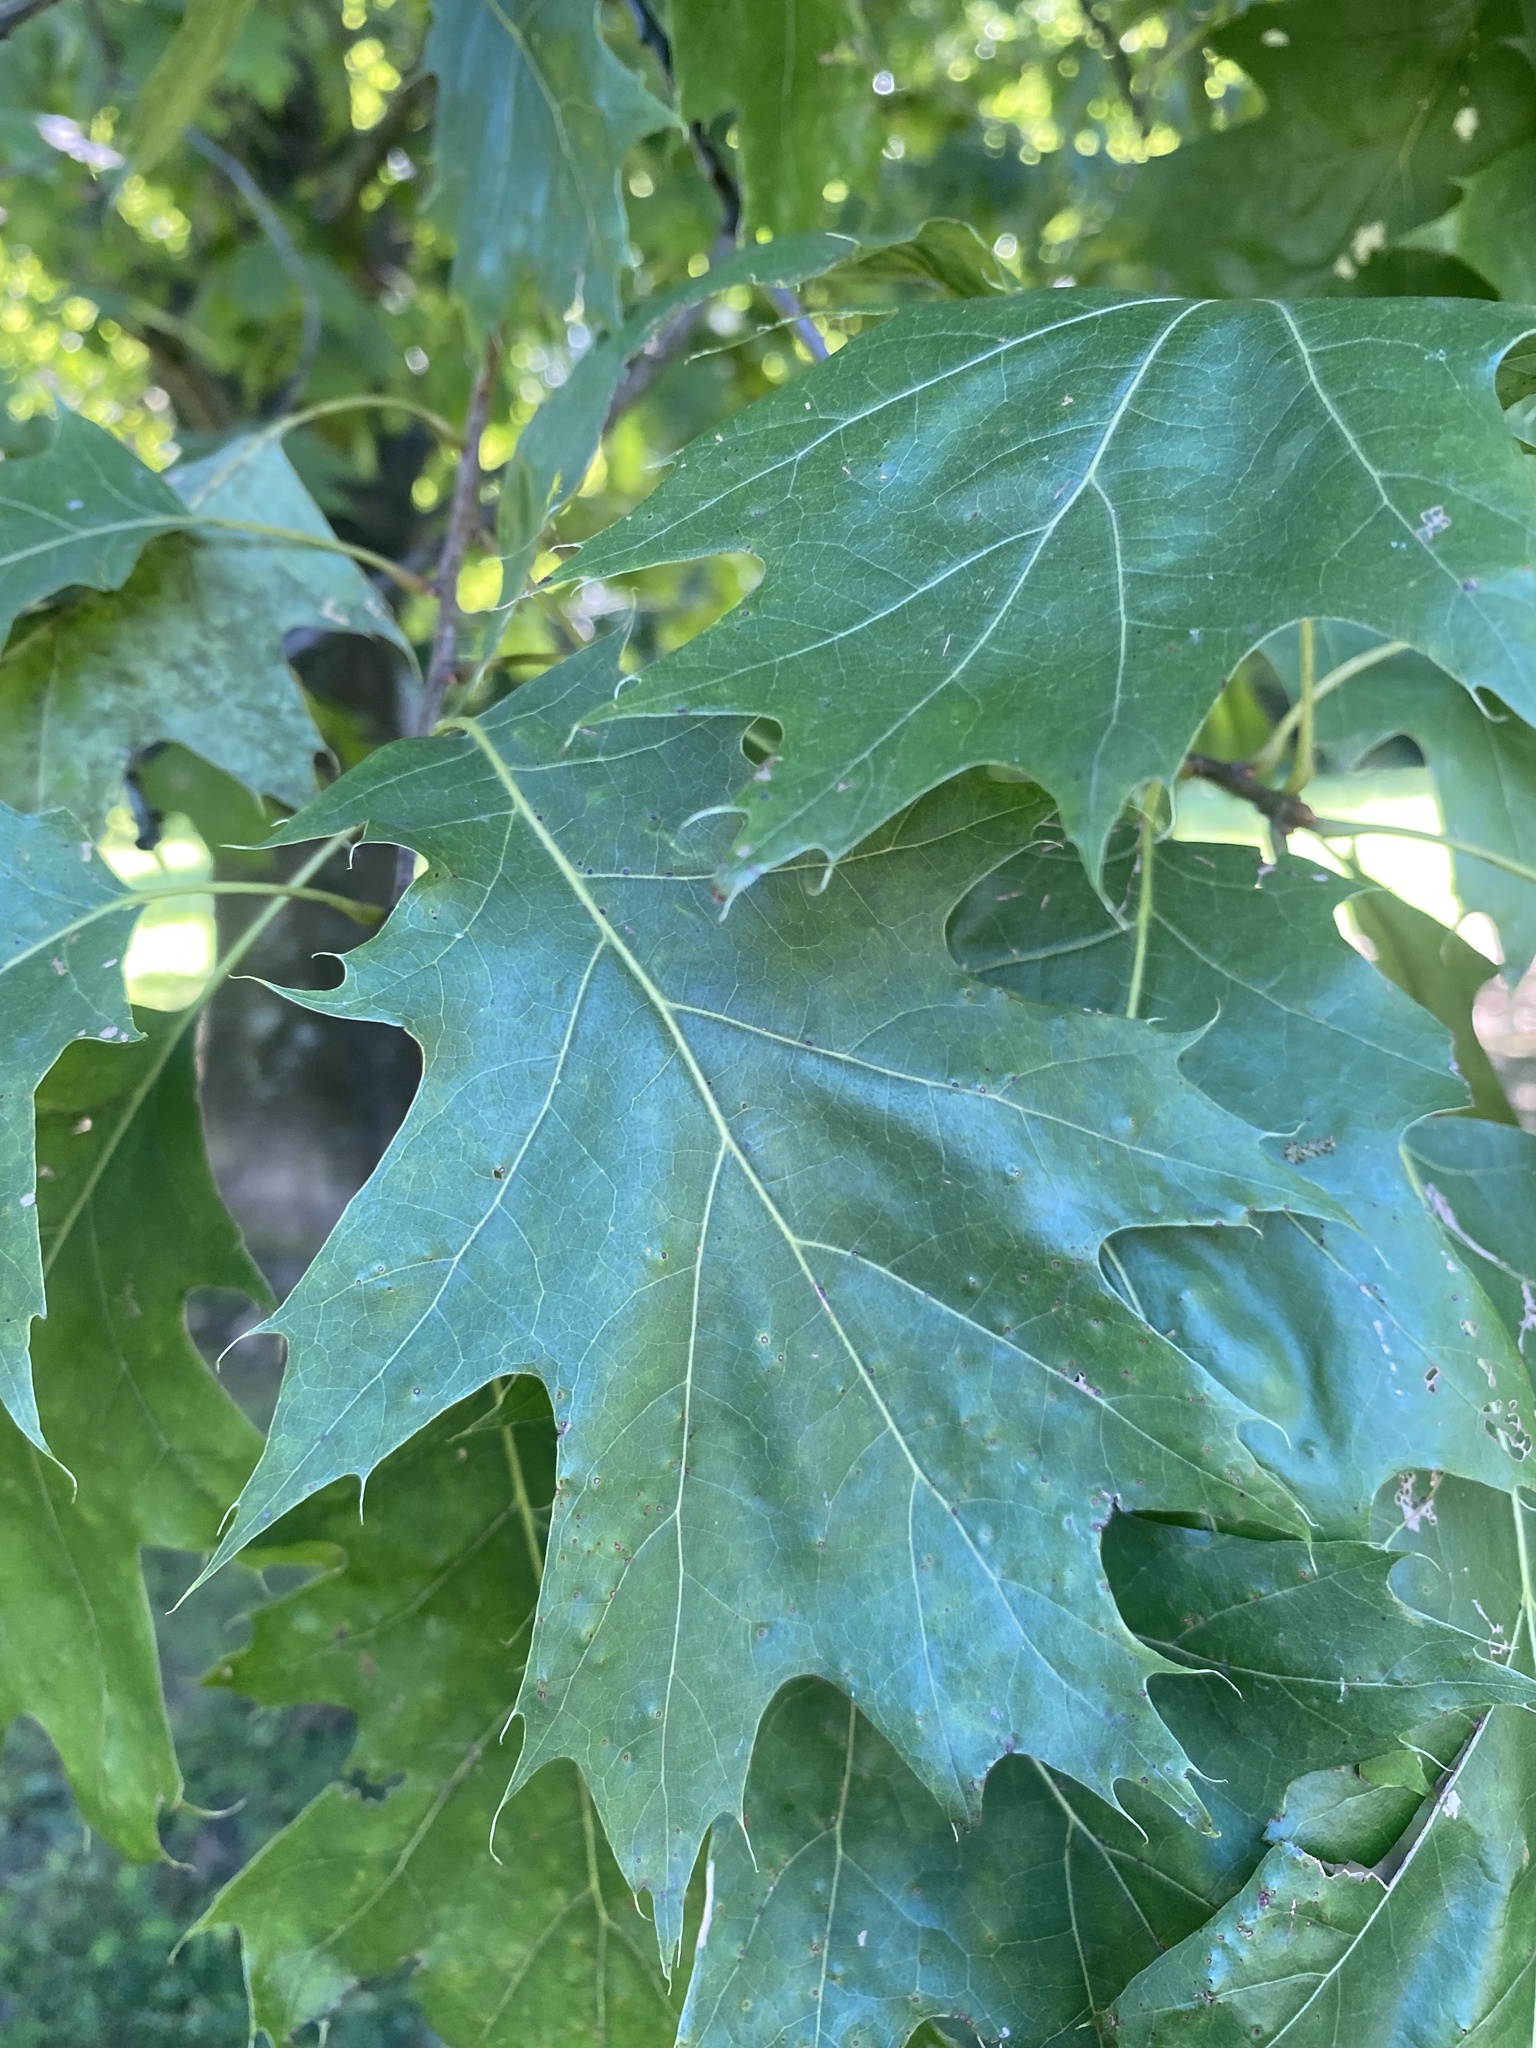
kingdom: Plantae
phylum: Tracheophyta
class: Magnoliopsida
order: Fagales
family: Fagaceae
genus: Quercus
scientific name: Quercus rubra
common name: Red oak
